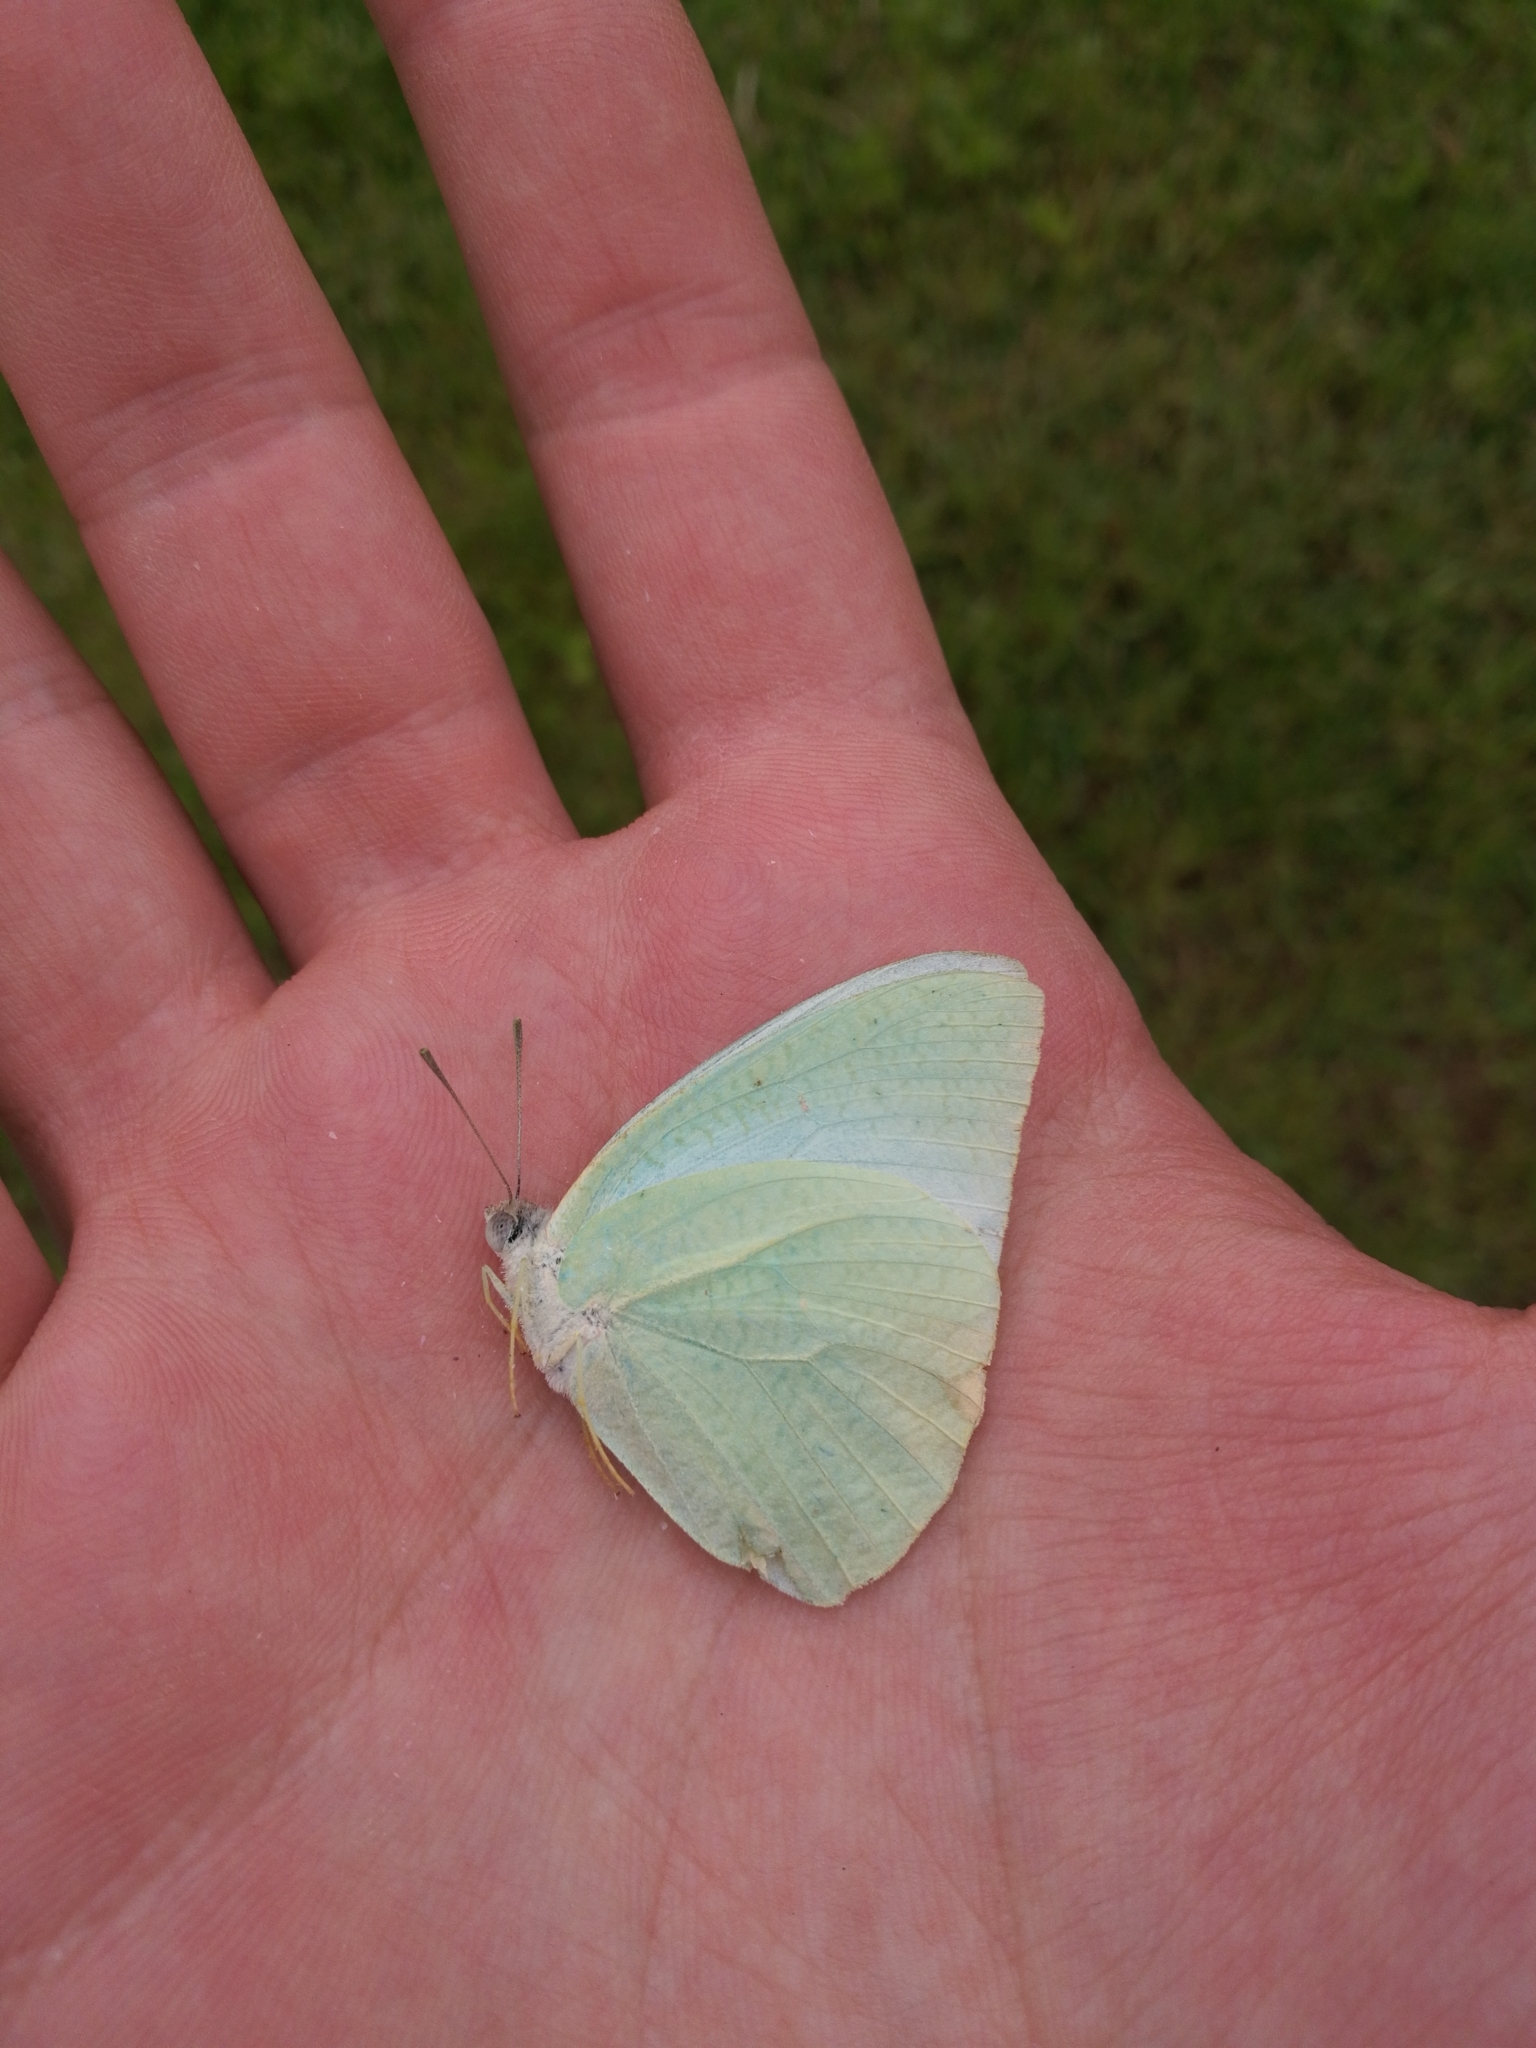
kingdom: Animalia
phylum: Arthropoda
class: Insecta
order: Lepidoptera
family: Pieridae
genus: Catopsilia
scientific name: Catopsilia florella
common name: African migrant
